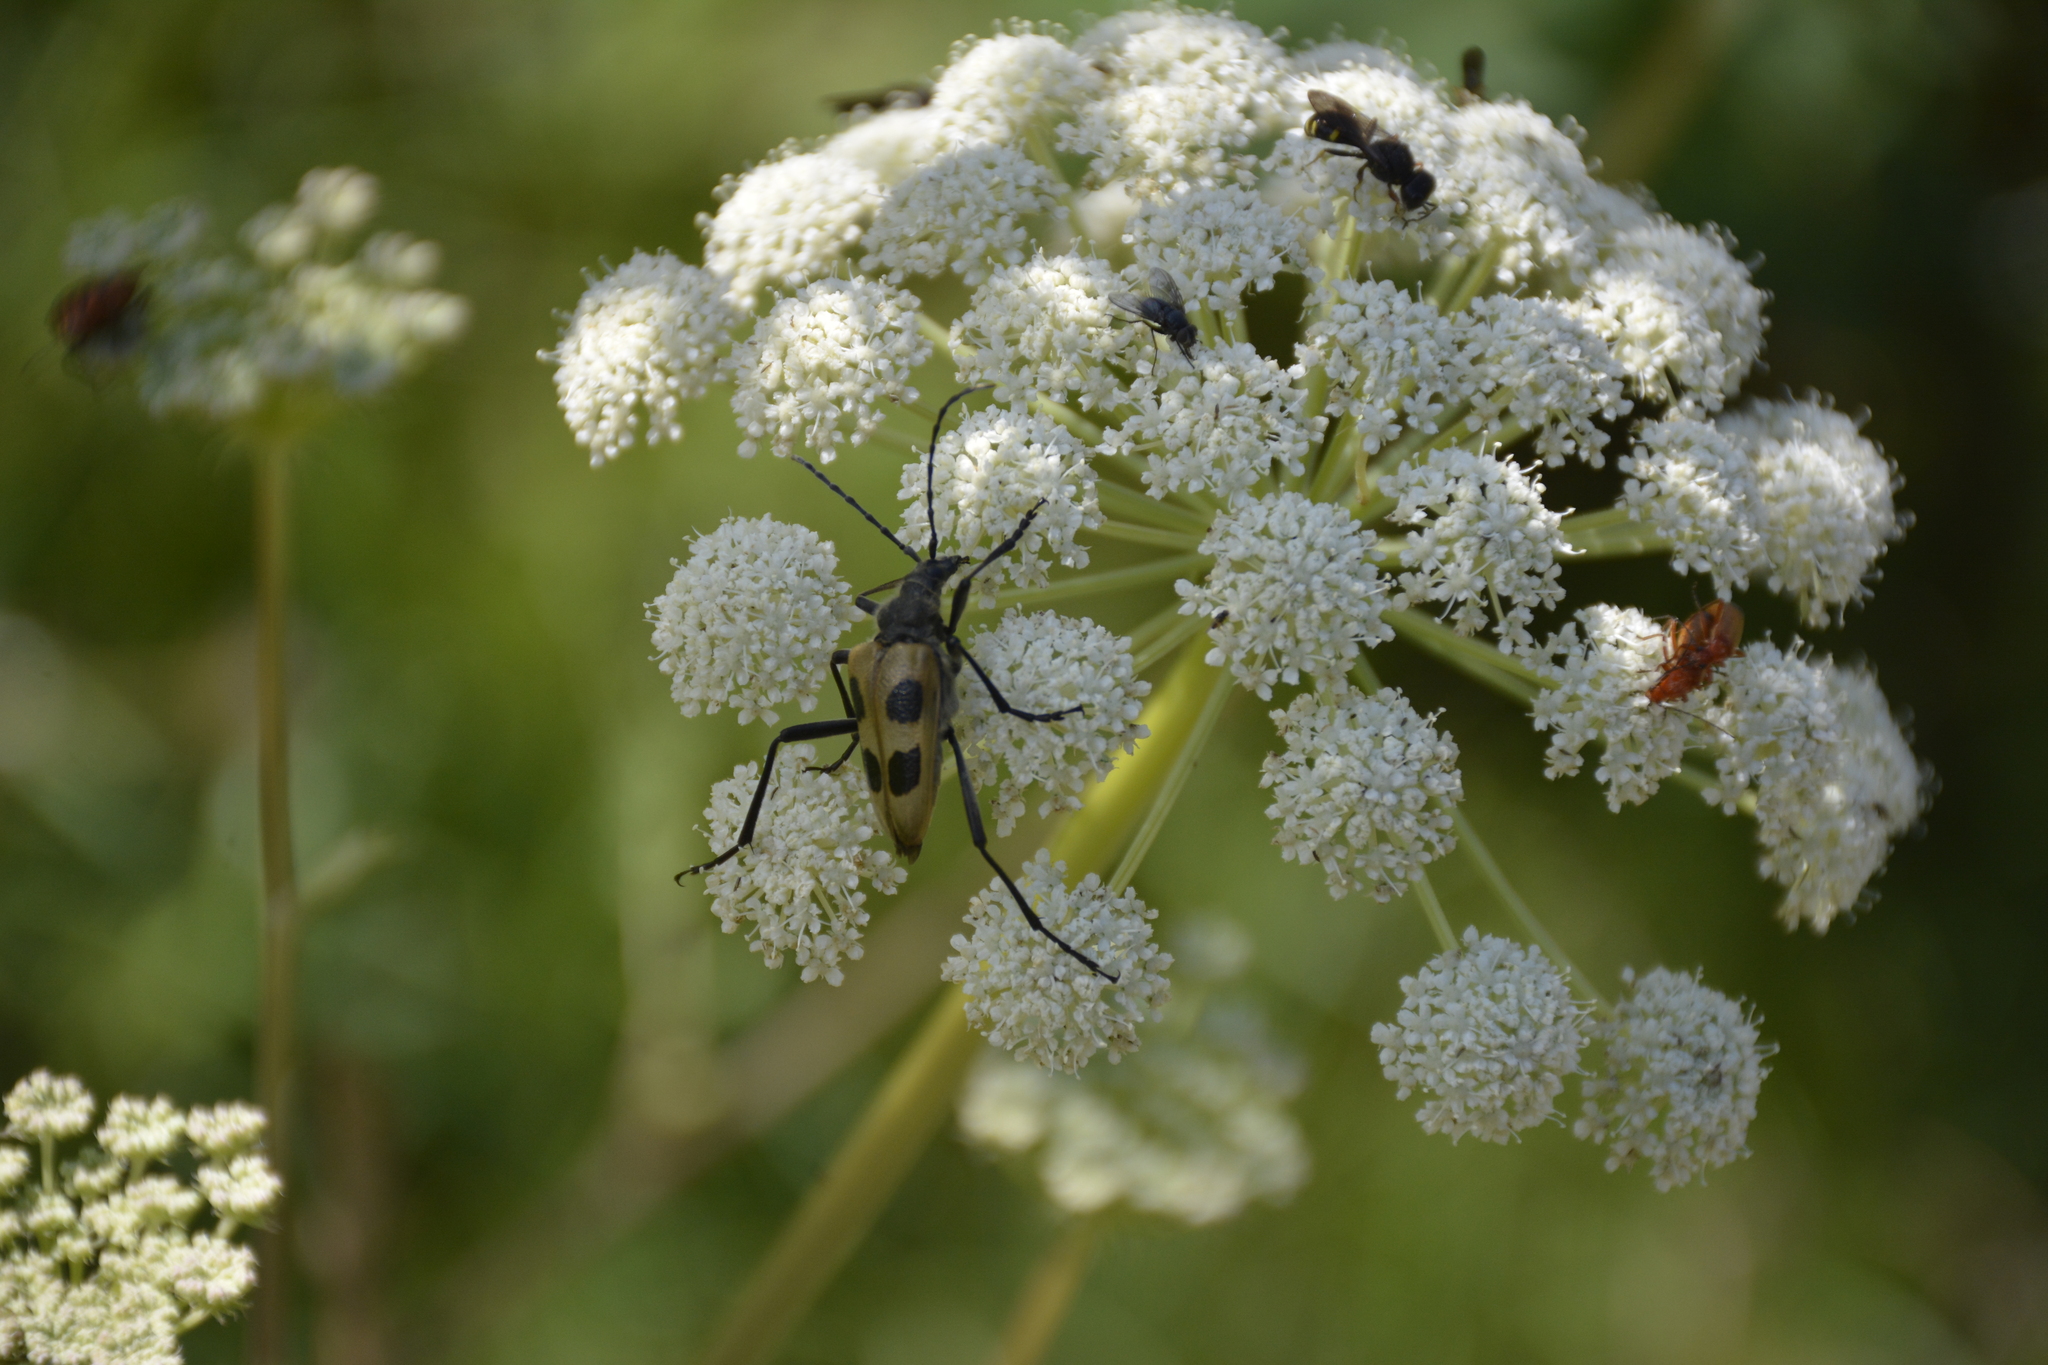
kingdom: Animalia
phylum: Arthropoda
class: Insecta
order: Coleoptera
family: Cerambycidae
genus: Pachyta
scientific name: Pachyta quadrimaculata
